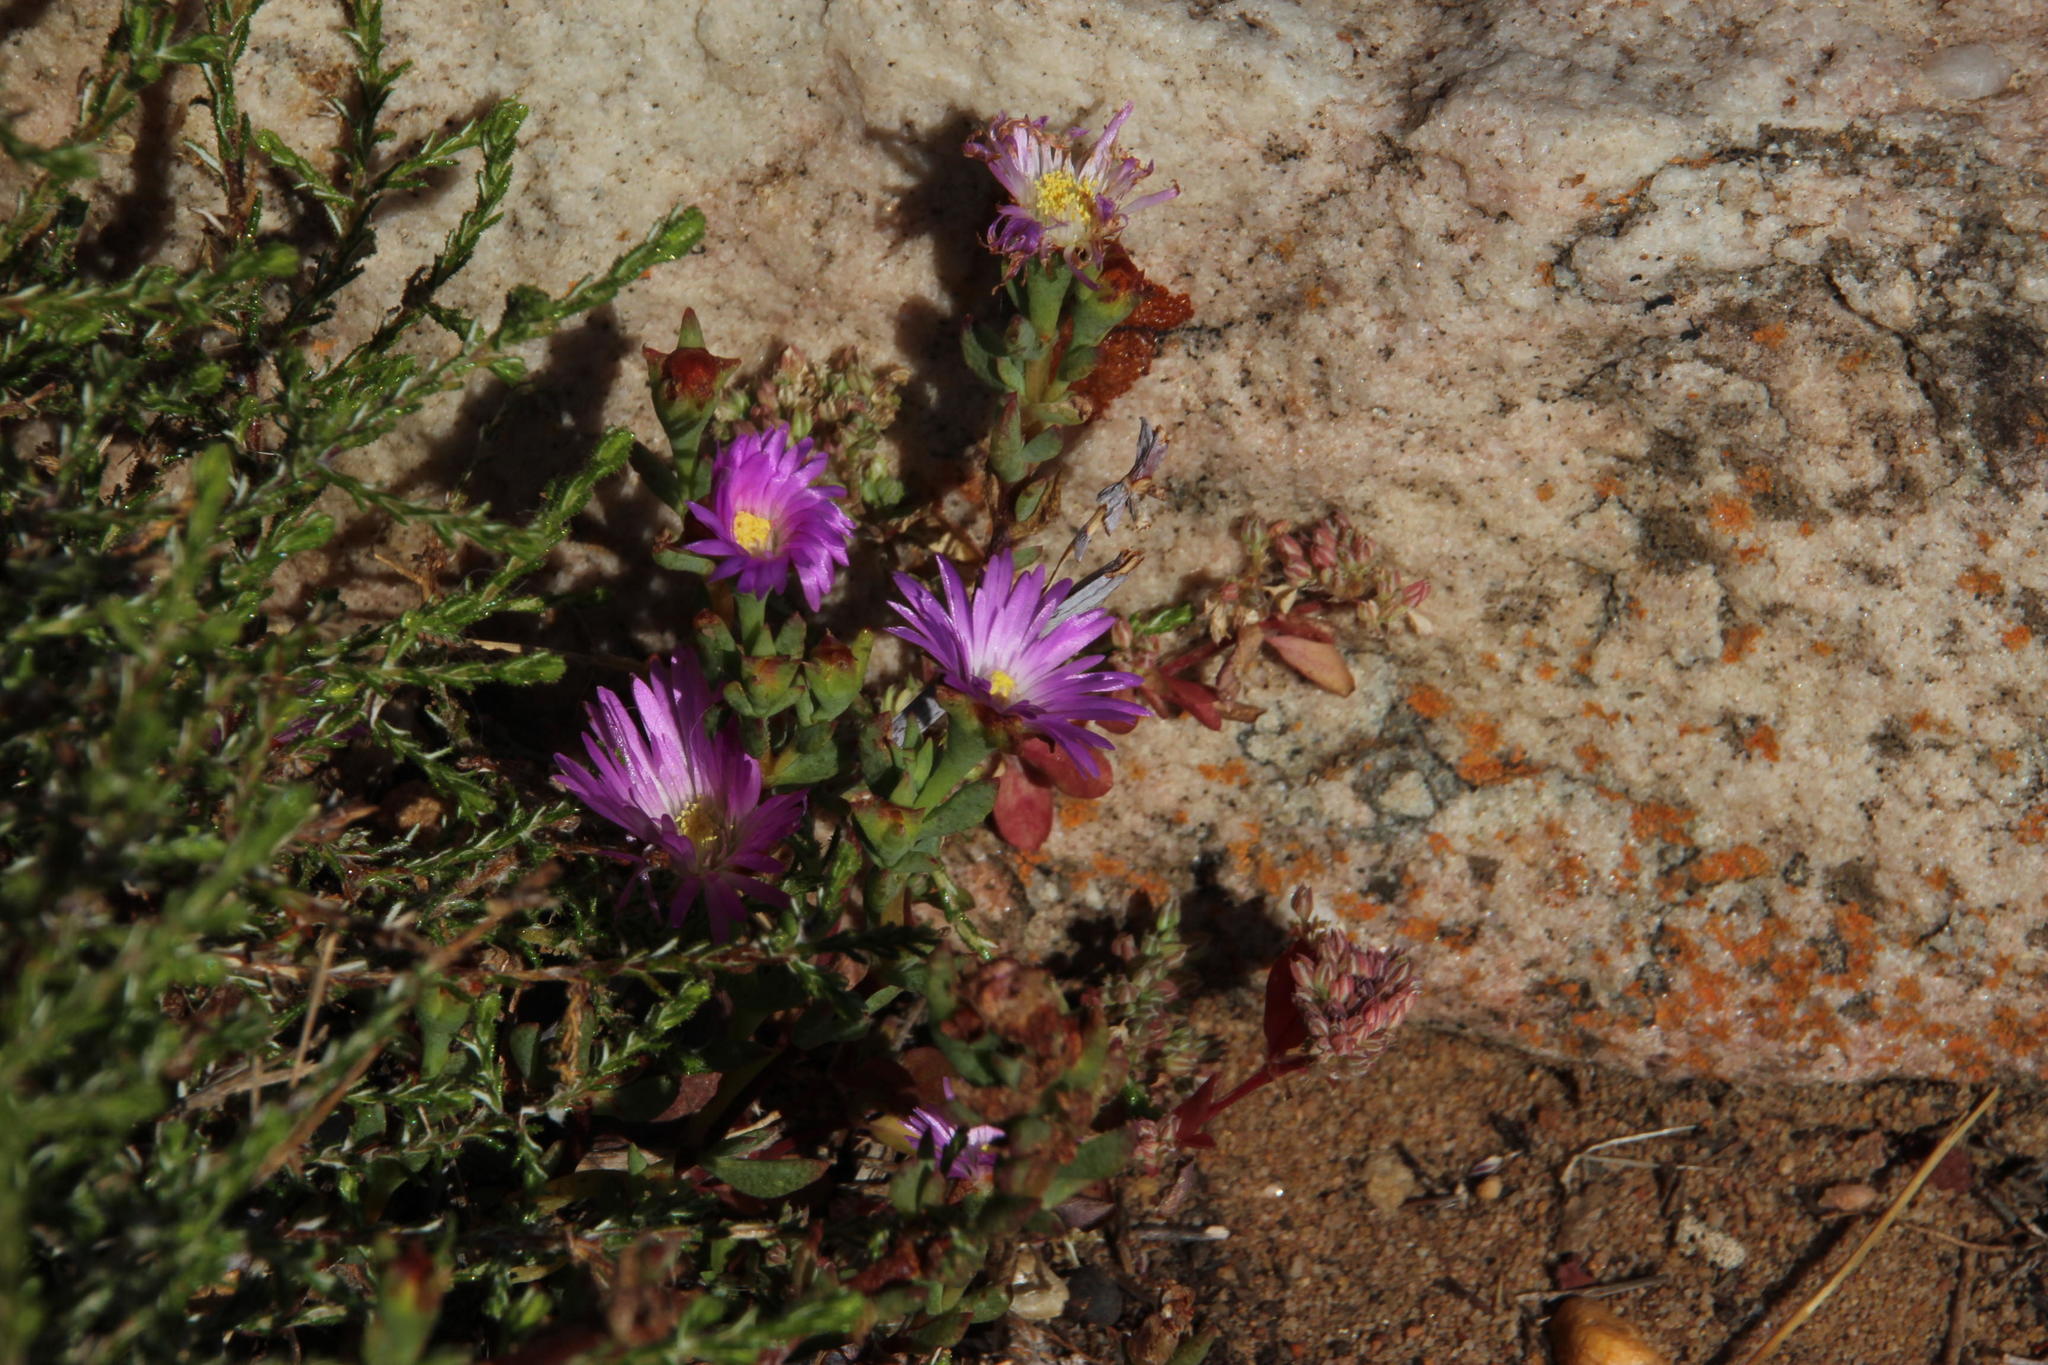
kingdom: Plantae
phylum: Tracheophyta
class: Magnoliopsida
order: Caryophyllales
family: Aizoaceae
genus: Lampranthus
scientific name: Lampranthus emarginatus
